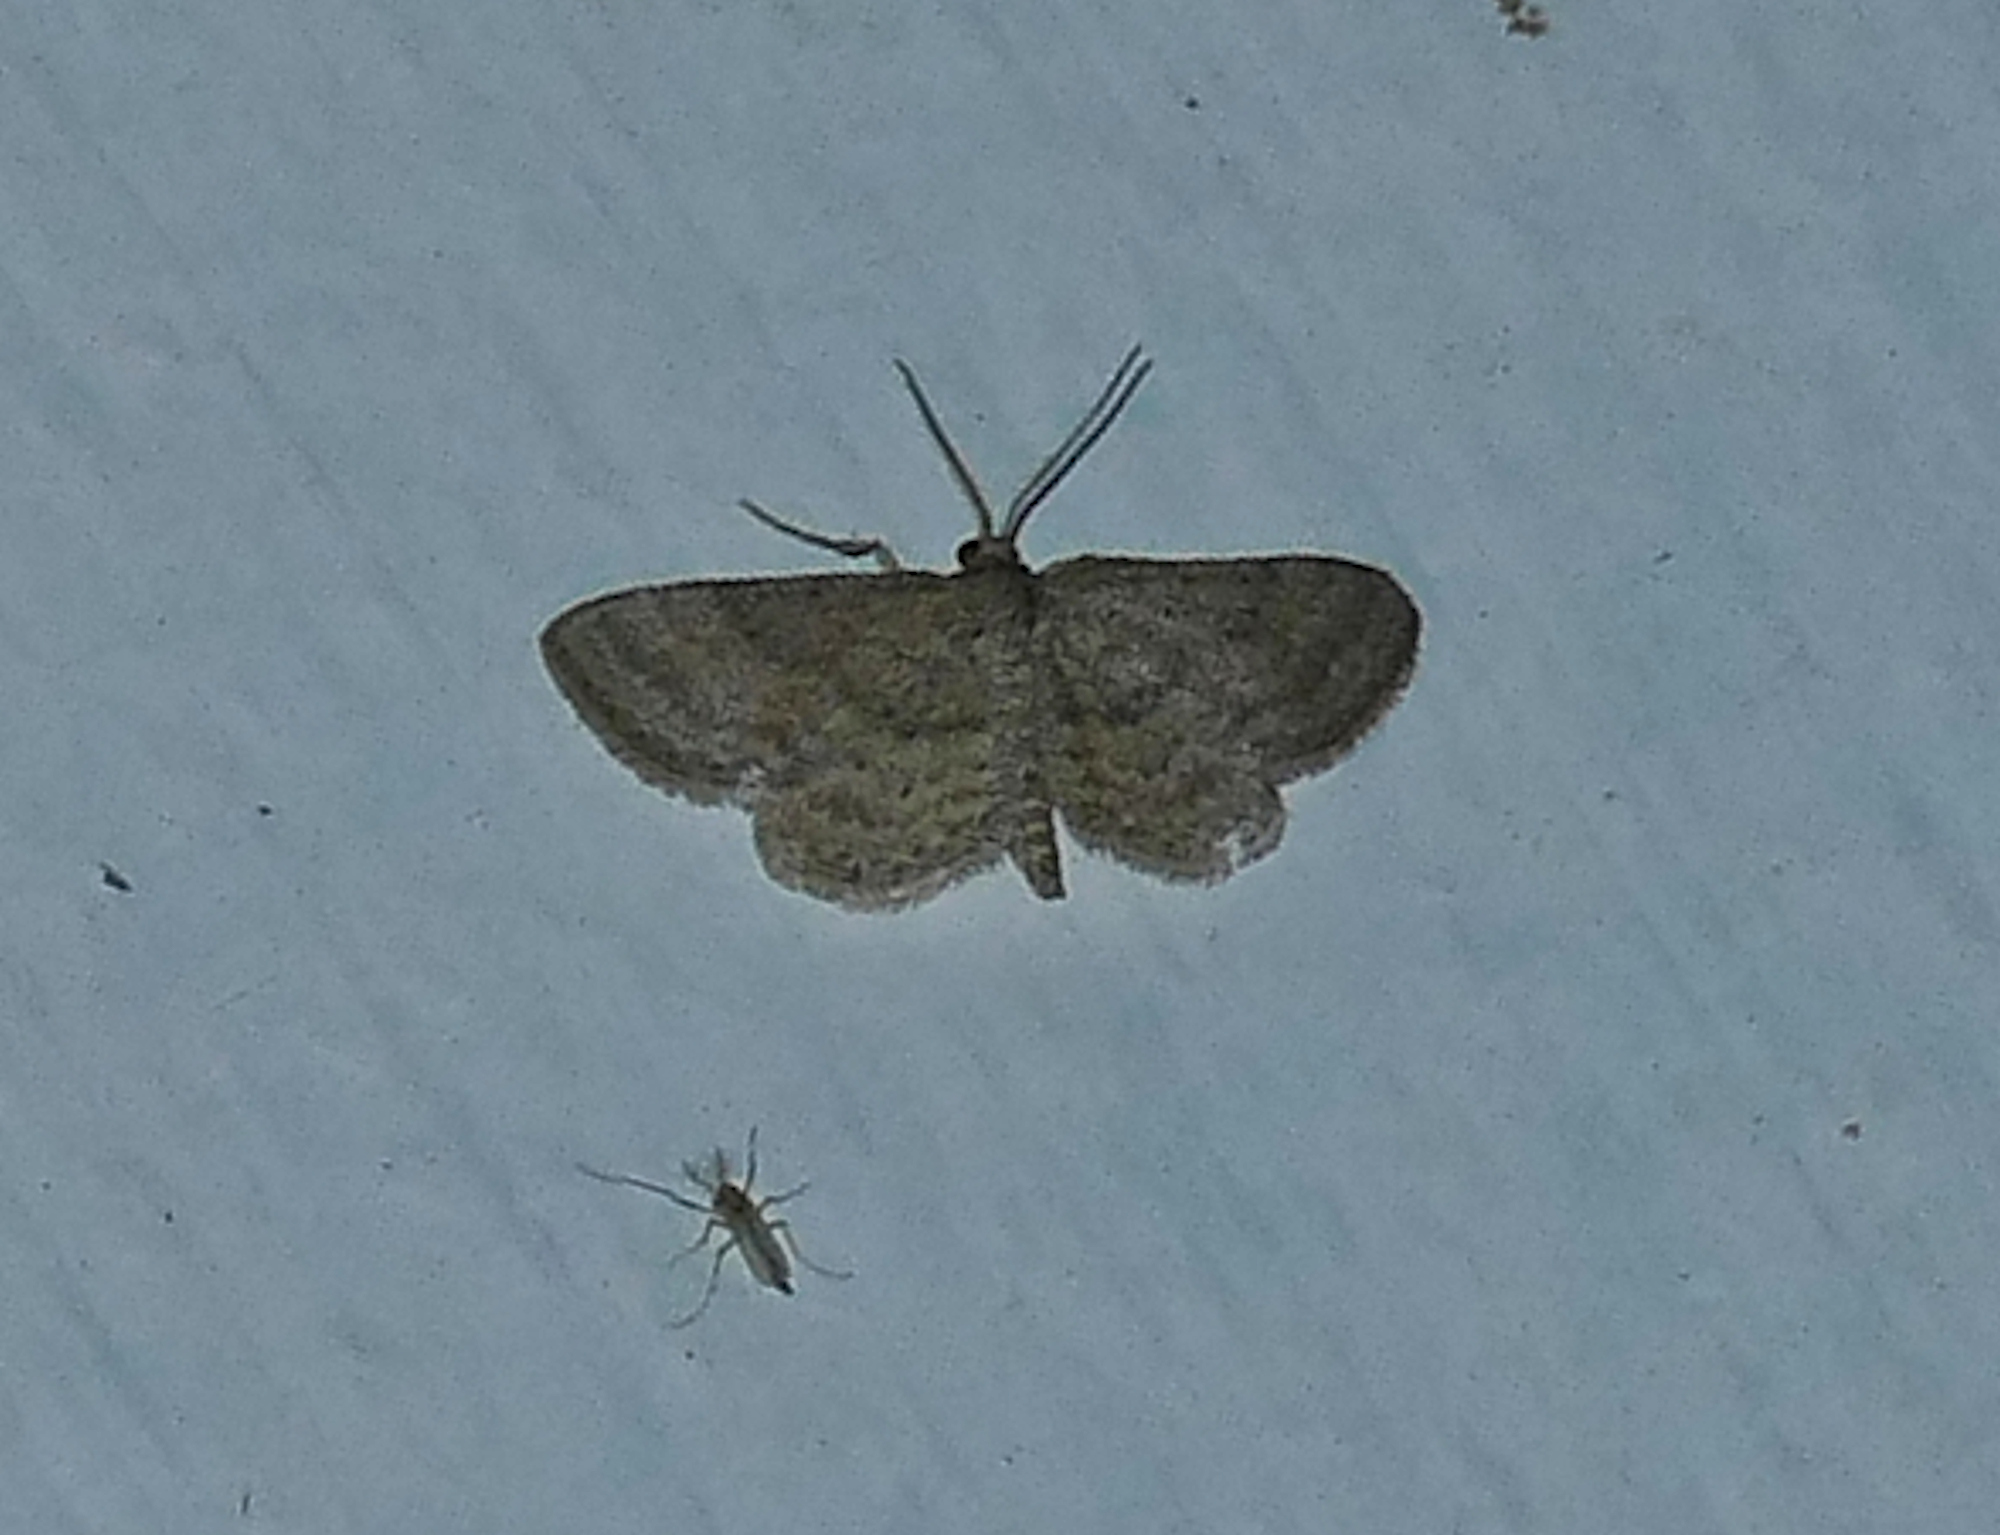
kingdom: Animalia
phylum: Arthropoda
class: Insecta
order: Lepidoptera
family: Geometridae
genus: Lobocleta
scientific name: Lobocleta ossularia
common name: Drab brown wave
